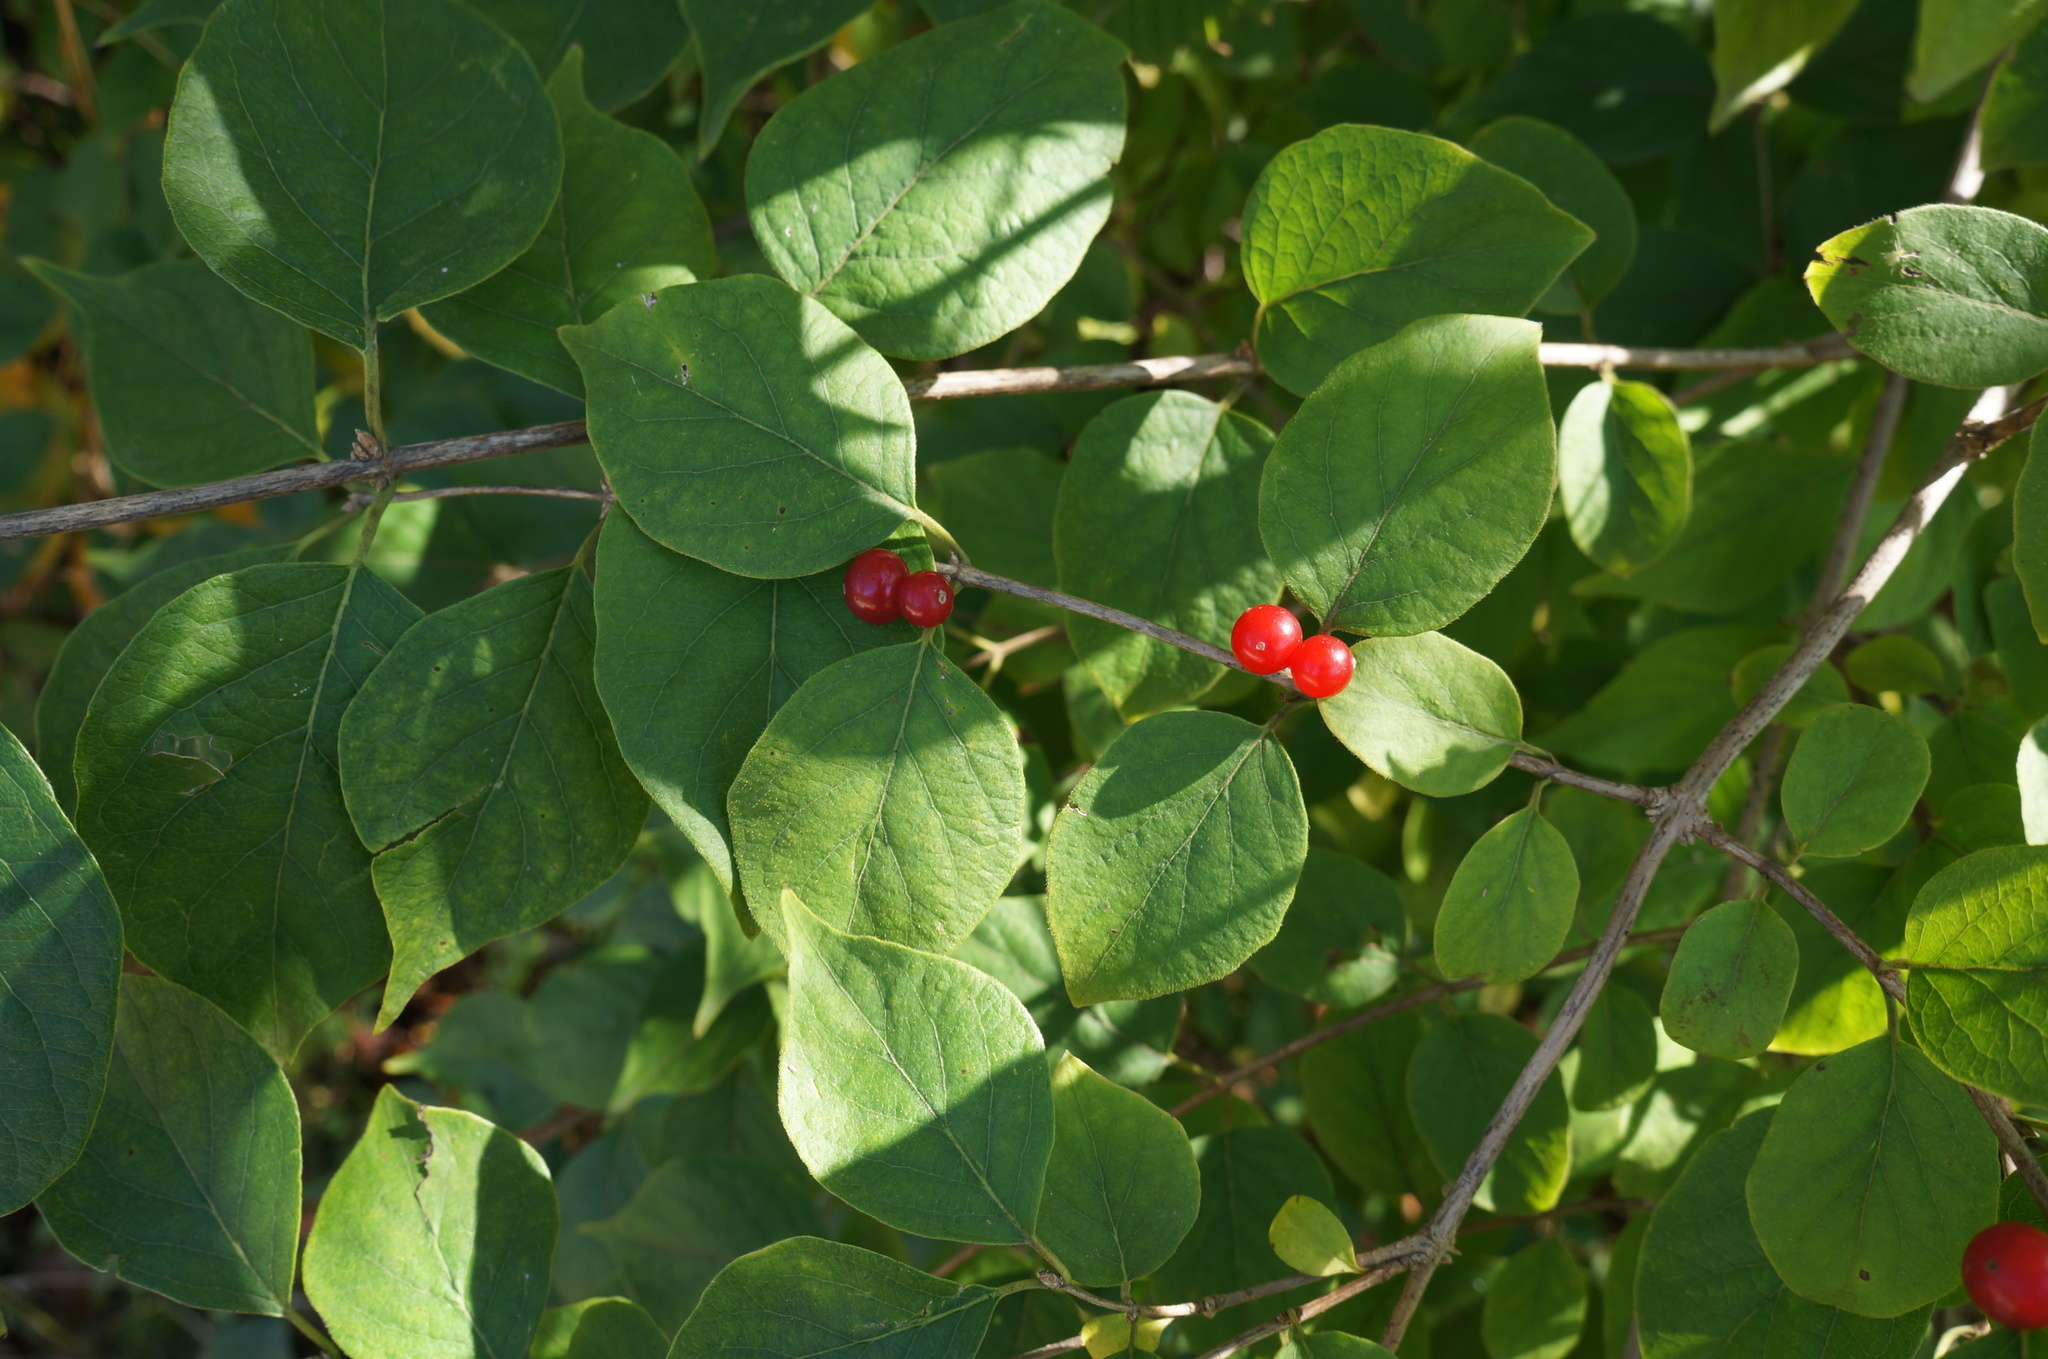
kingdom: Plantae
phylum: Tracheophyta
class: Magnoliopsida
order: Dipsacales
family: Caprifoliaceae
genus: Lonicera
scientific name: Lonicera maackii
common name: Amur honeysuckle
